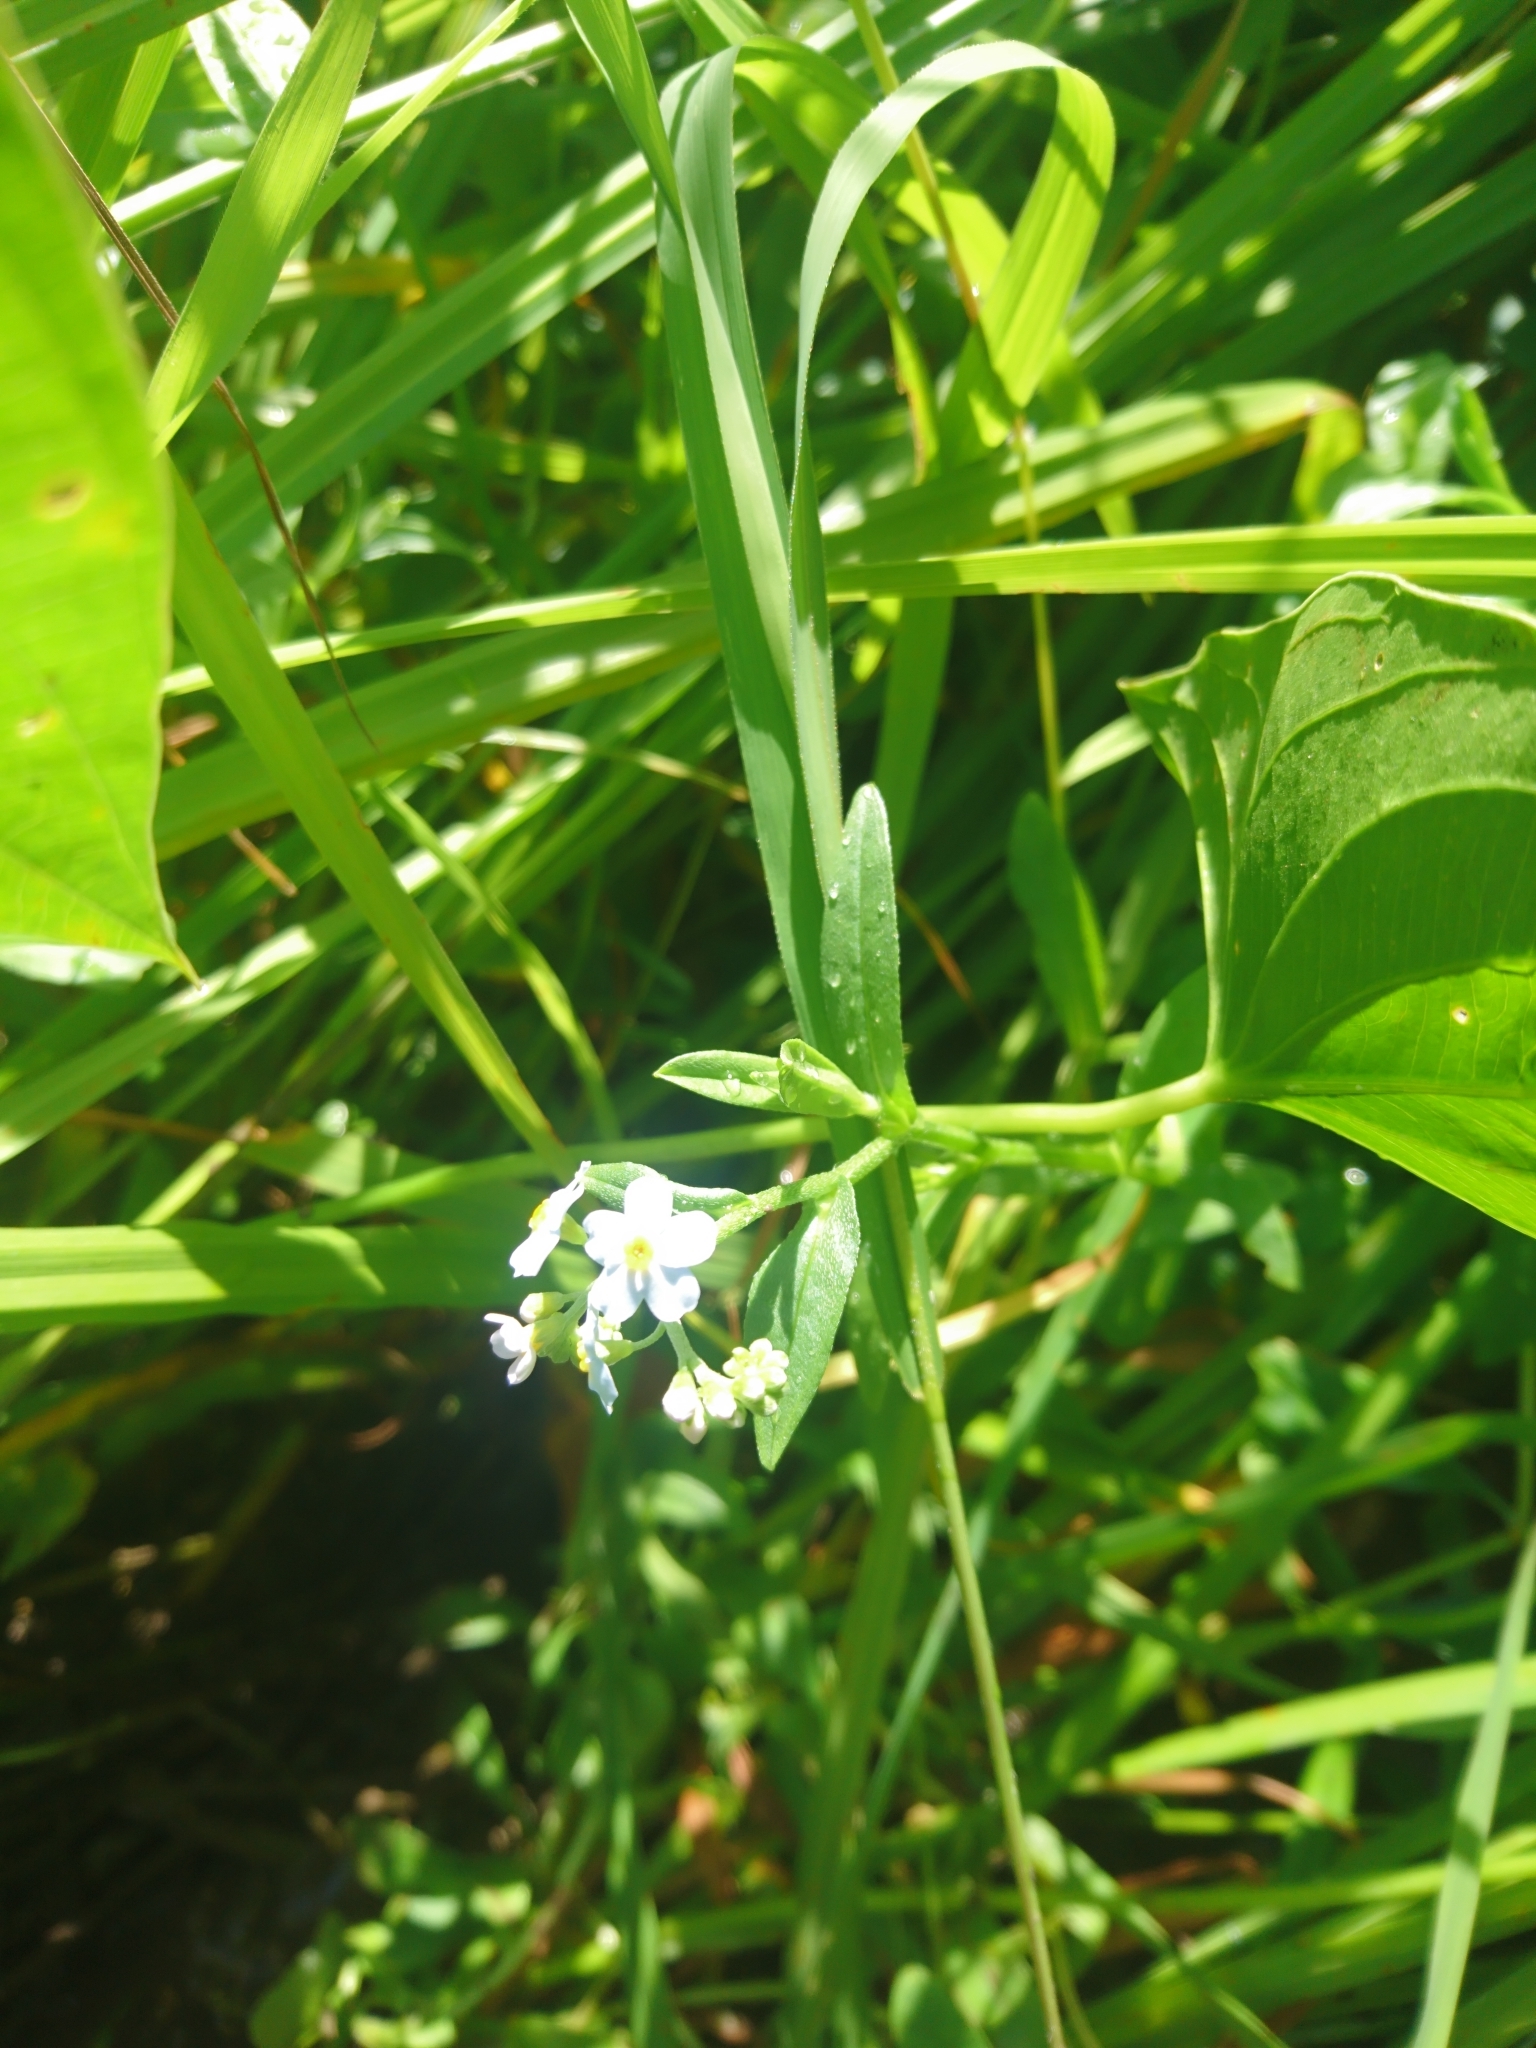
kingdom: Plantae
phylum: Tracheophyta
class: Magnoliopsida
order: Boraginales
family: Boraginaceae
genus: Myosotis
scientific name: Myosotis scorpioides
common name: Water forget-me-not
